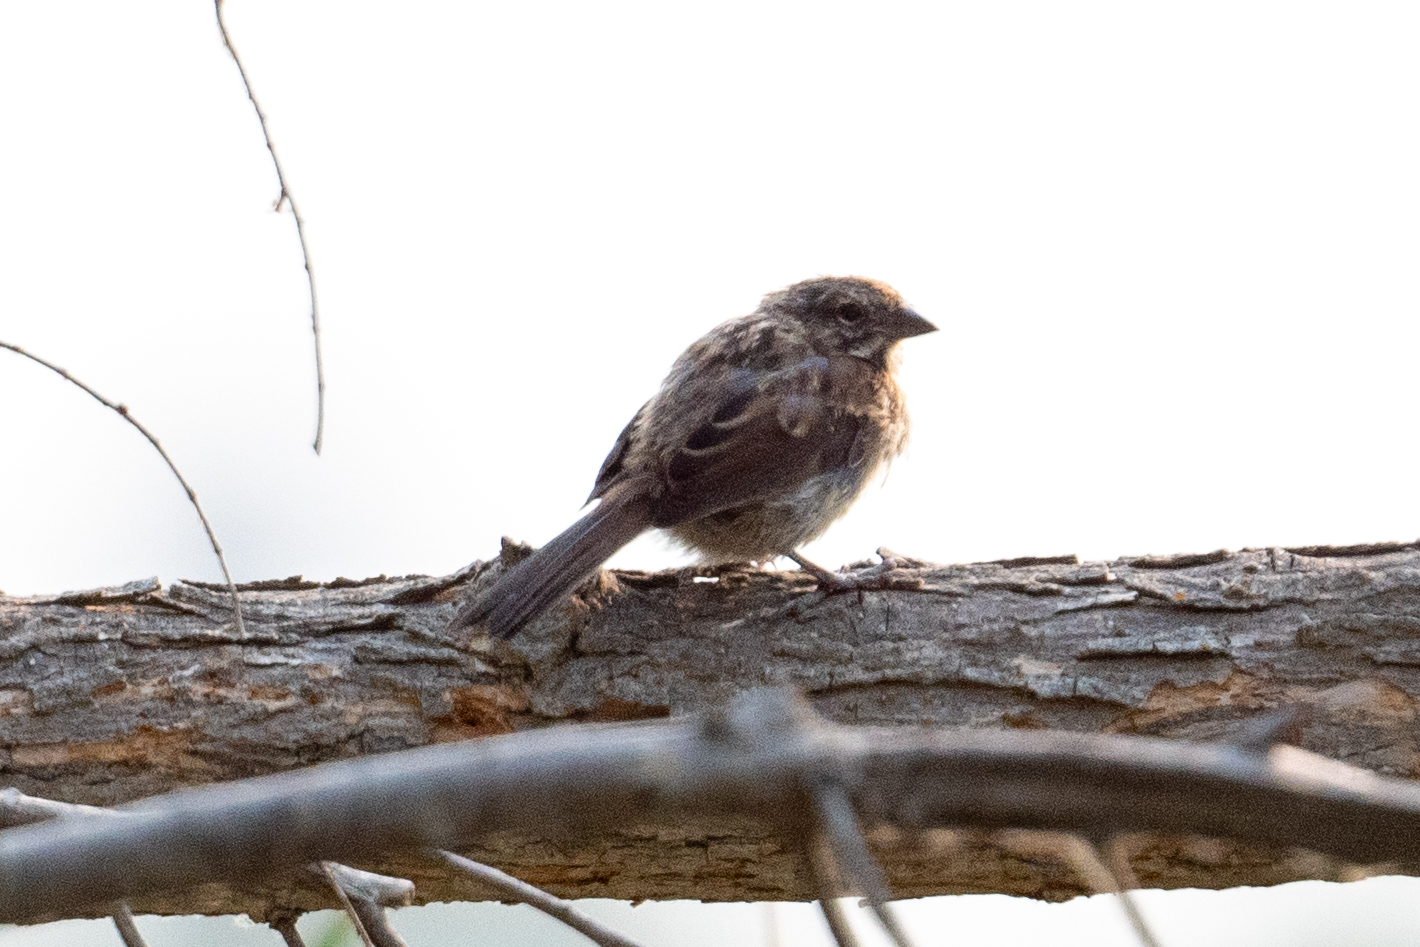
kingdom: Animalia
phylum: Chordata
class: Aves
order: Passeriformes
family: Passerellidae
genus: Melospiza
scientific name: Melospiza melodia
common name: Song sparrow
